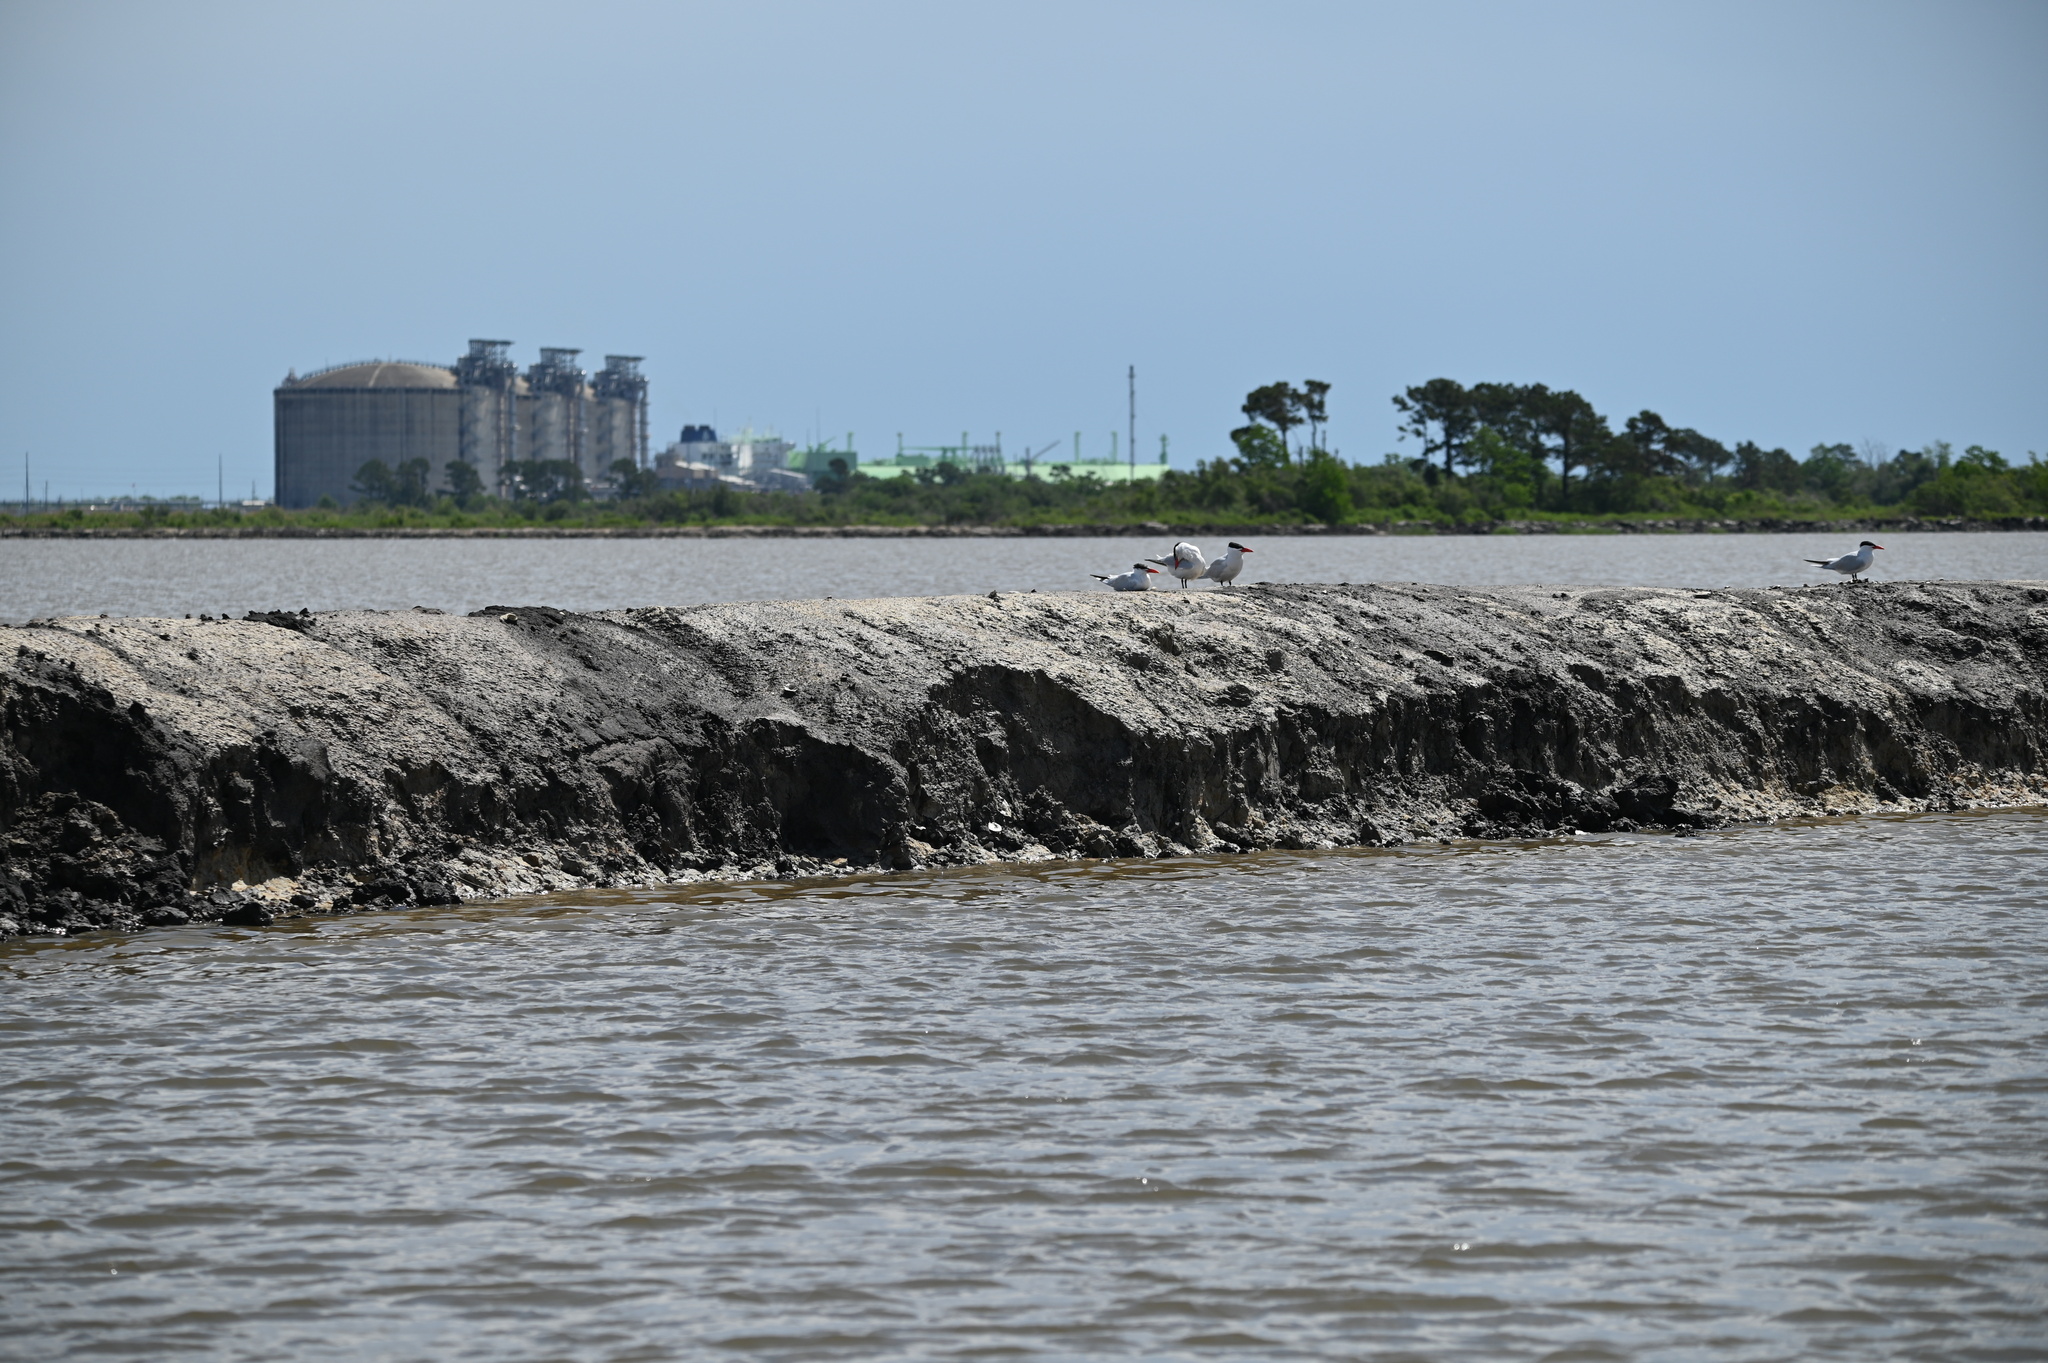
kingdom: Animalia
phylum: Chordata
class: Aves
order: Charadriiformes
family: Laridae
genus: Hydroprogne
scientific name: Hydroprogne caspia
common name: Caspian tern
